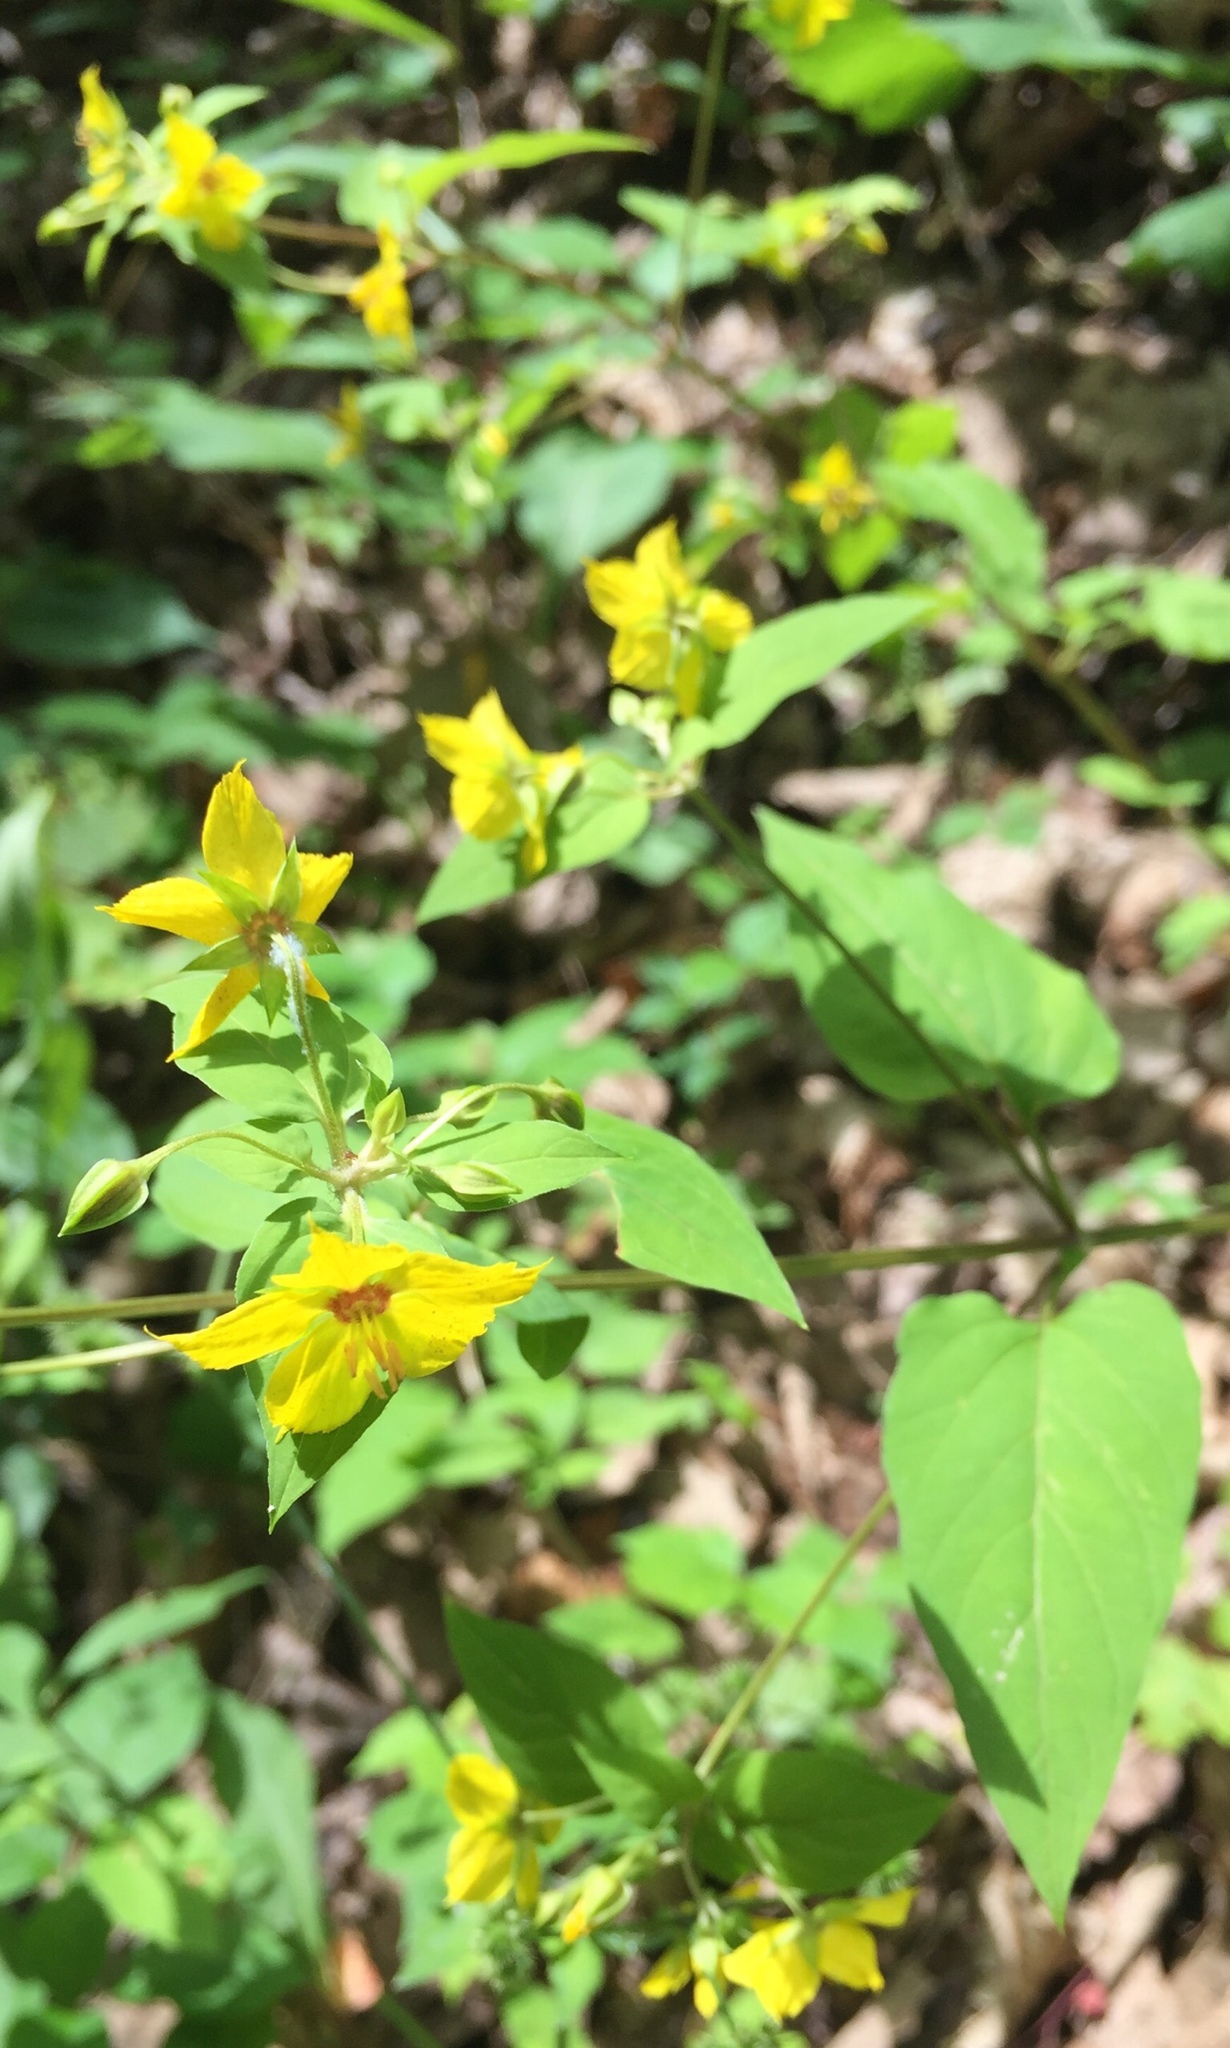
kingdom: Plantae
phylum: Tracheophyta
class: Magnoliopsida
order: Ericales
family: Primulaceae
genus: Lysimachia
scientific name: Lysimachia ciliata
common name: Fringed loosestrife
